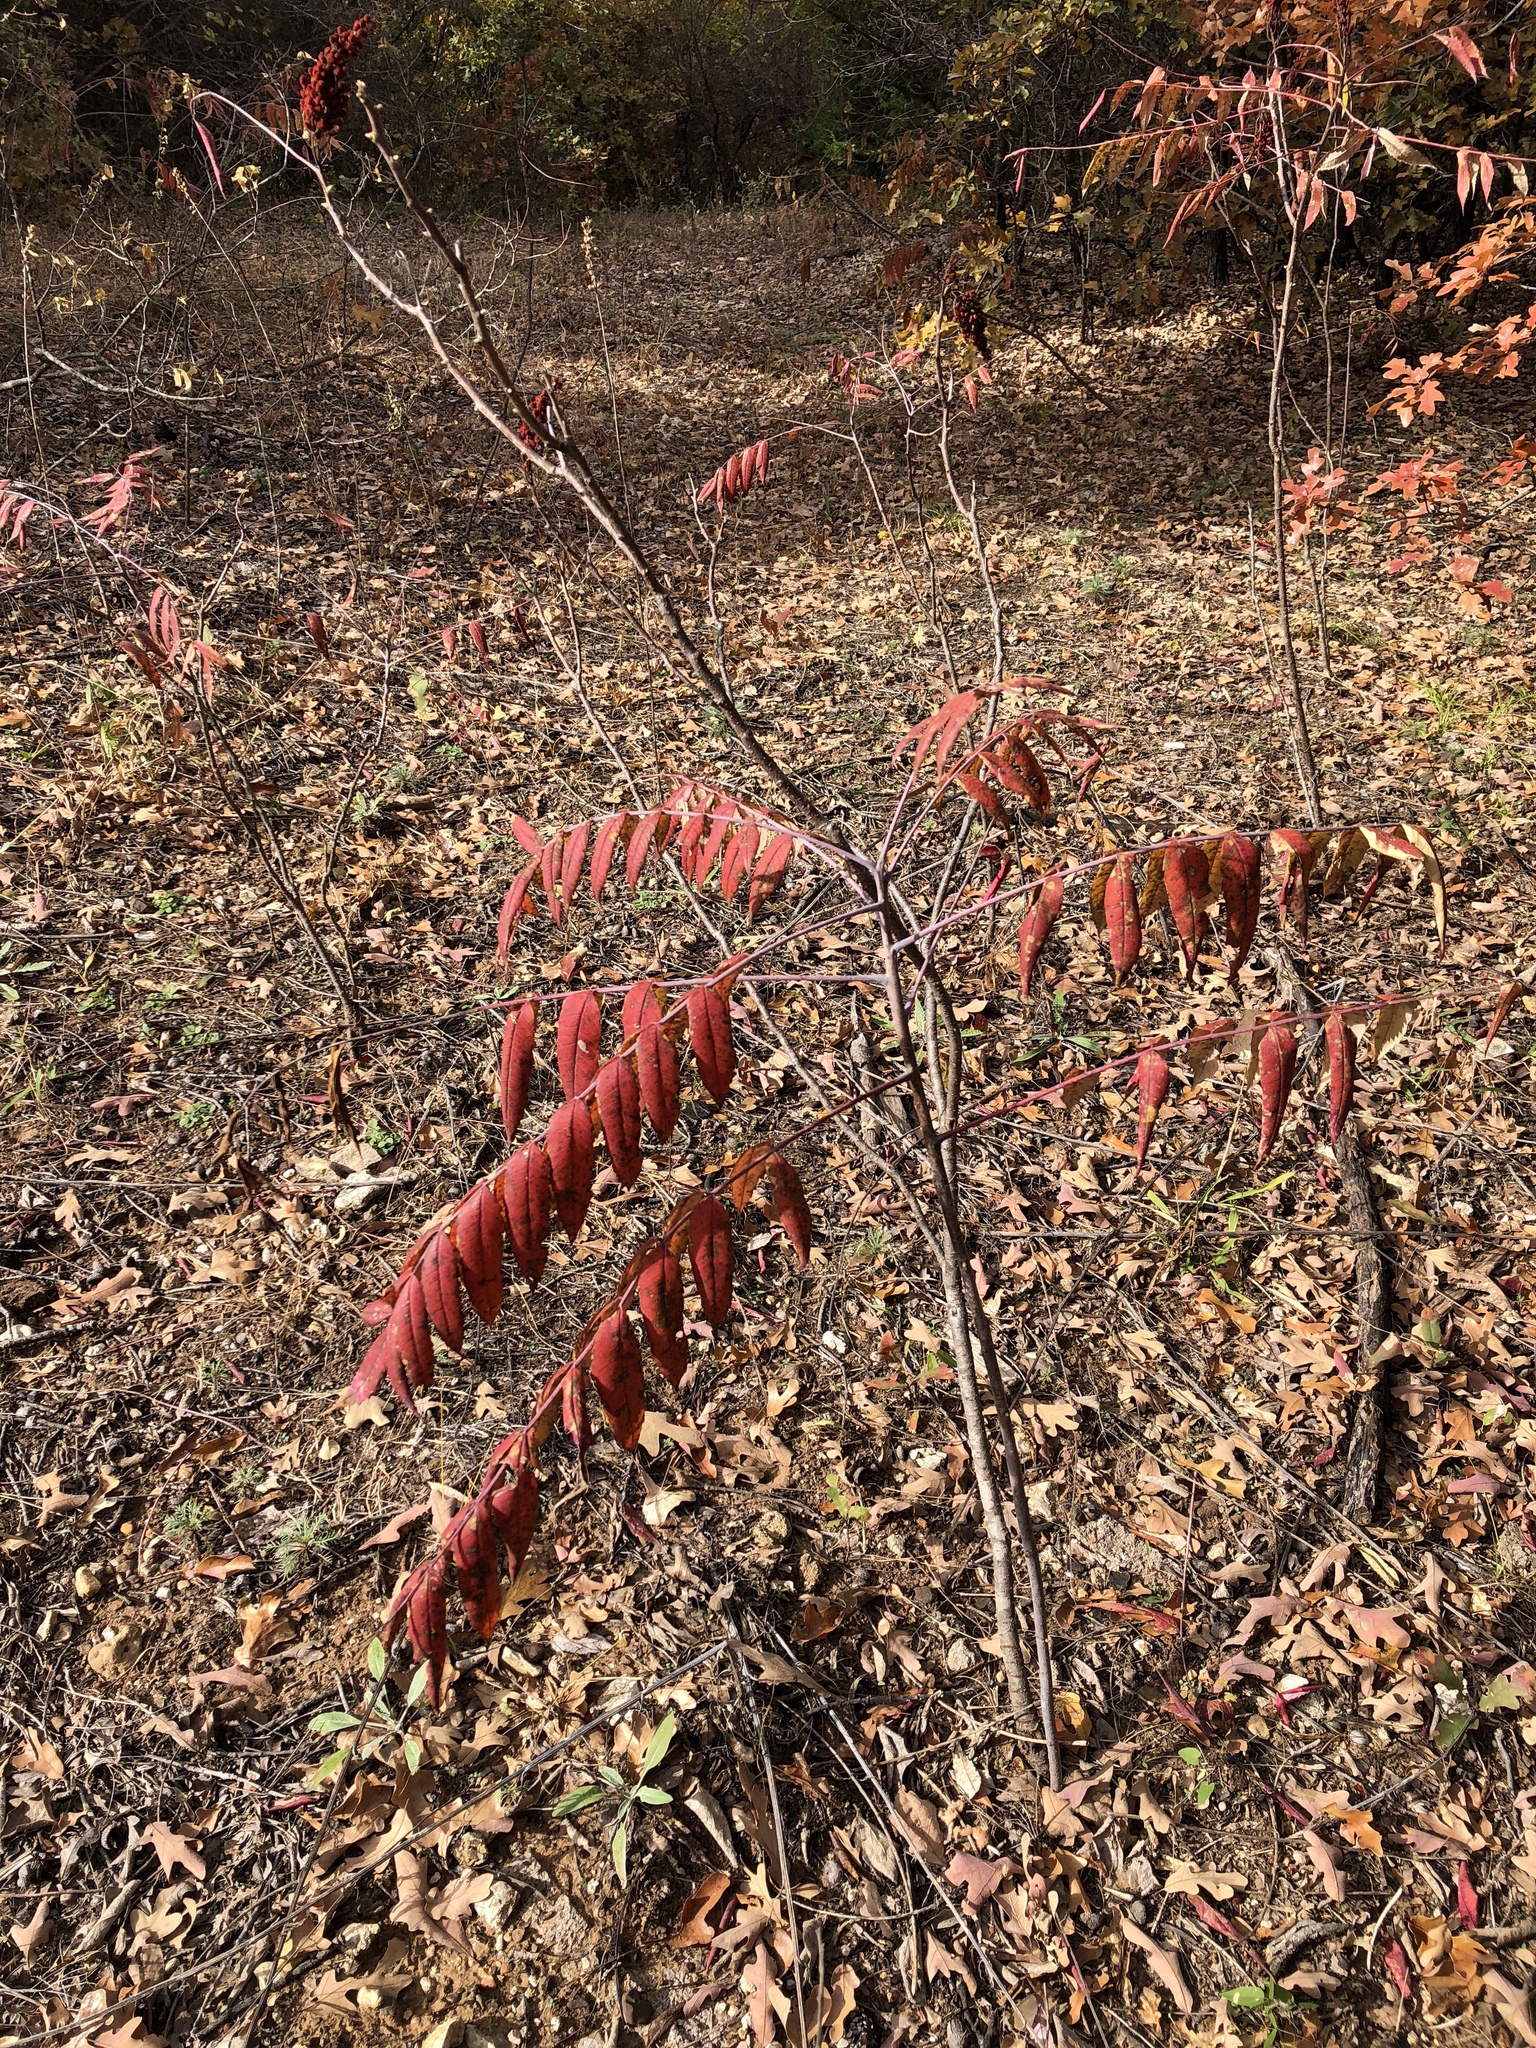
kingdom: Plantae
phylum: Tracheophyta
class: Magnoliopsida
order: Sapindales
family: Anacardiaceae
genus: Rhus
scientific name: Rhus glabra
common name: Scarlet sumac
